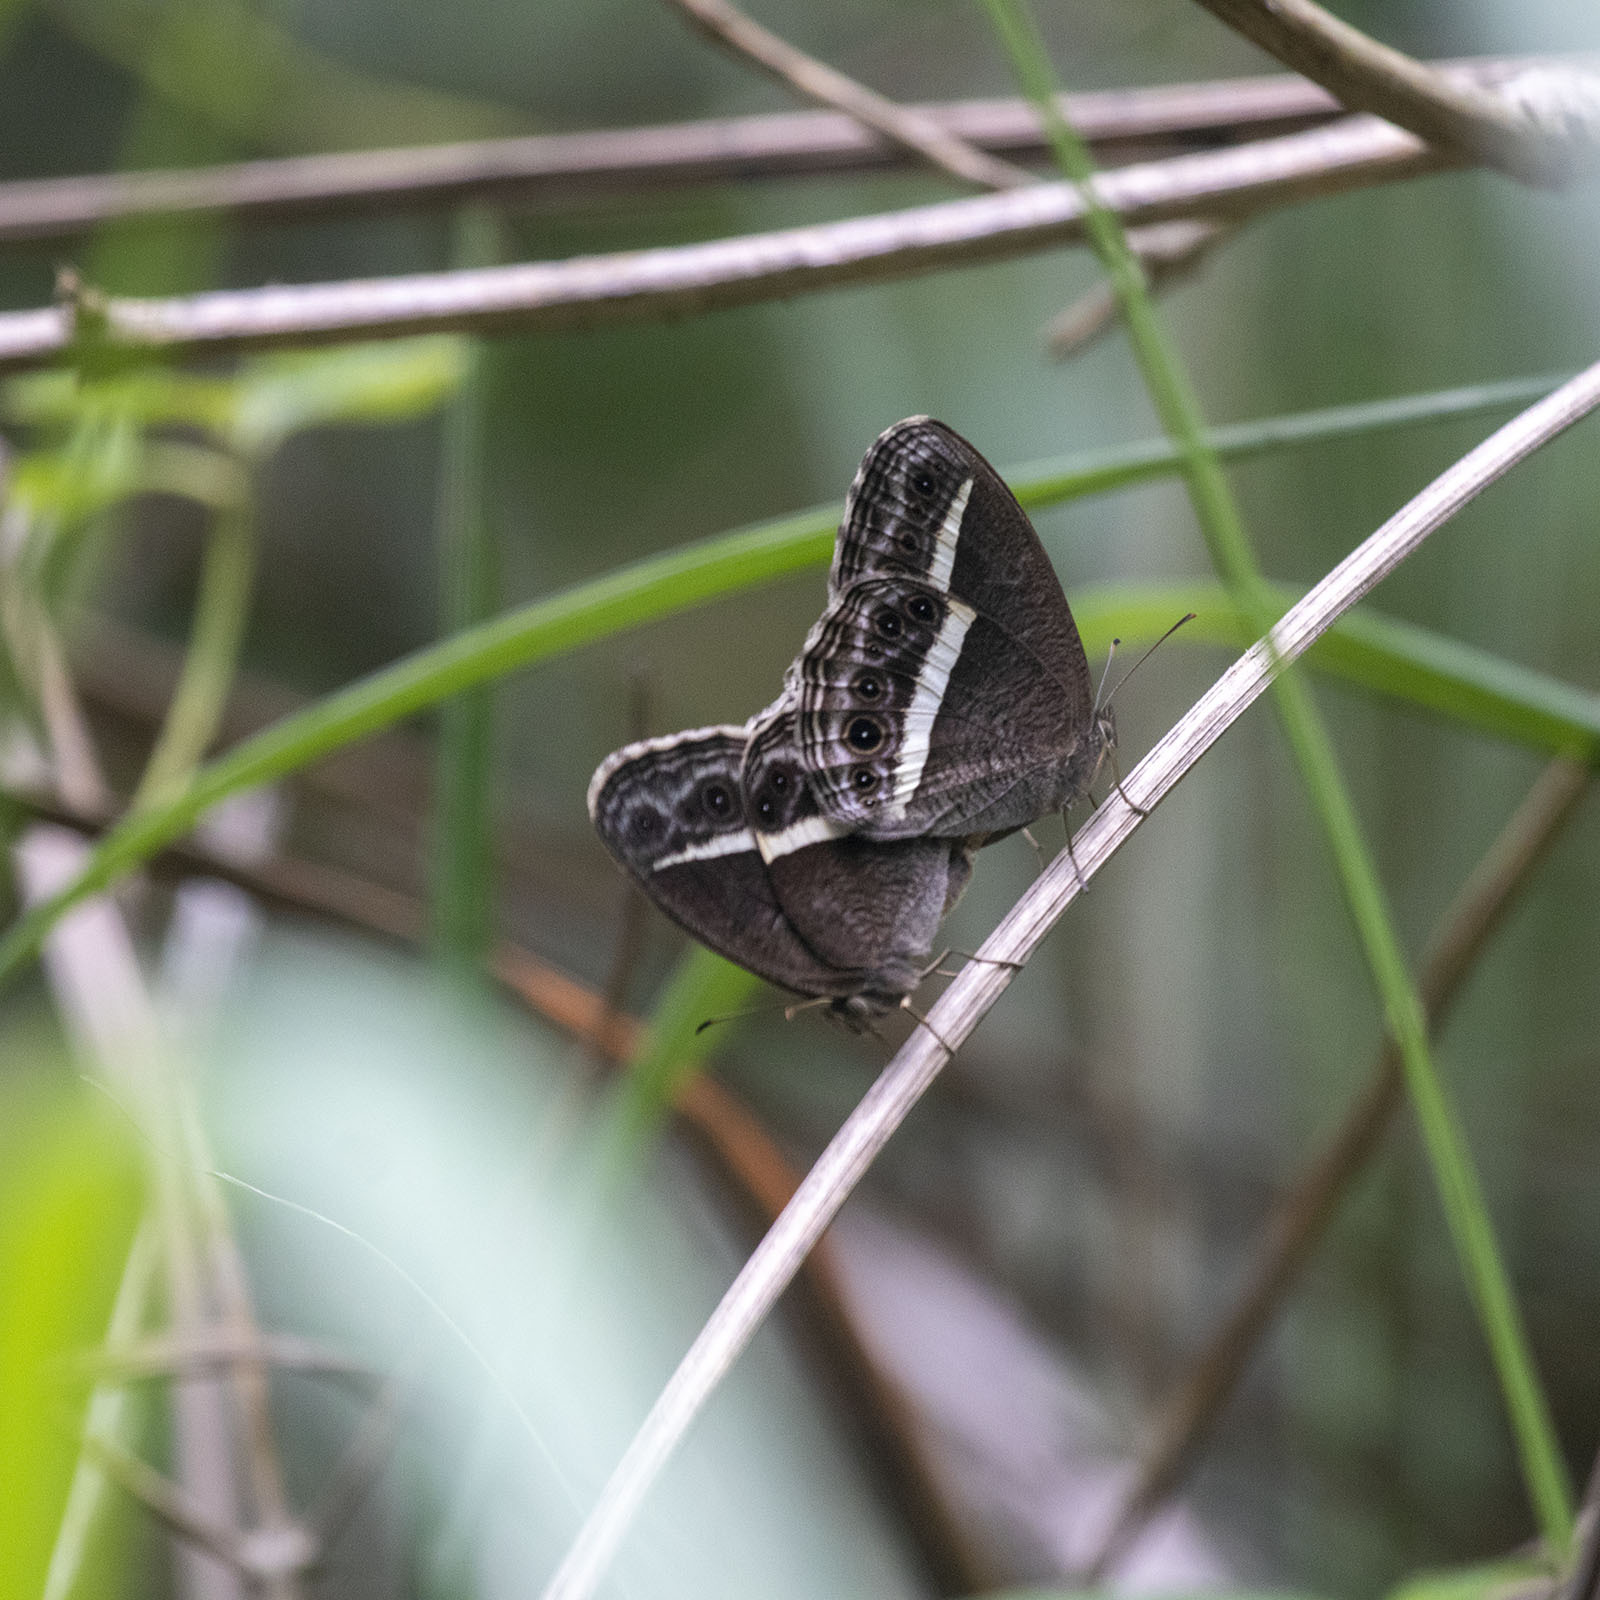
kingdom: Animalia
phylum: Arthropoda
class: Insecta
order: Lepidoptera
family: Nymphalidae
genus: Mycalesis
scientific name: Mycalesis Telinga spec
